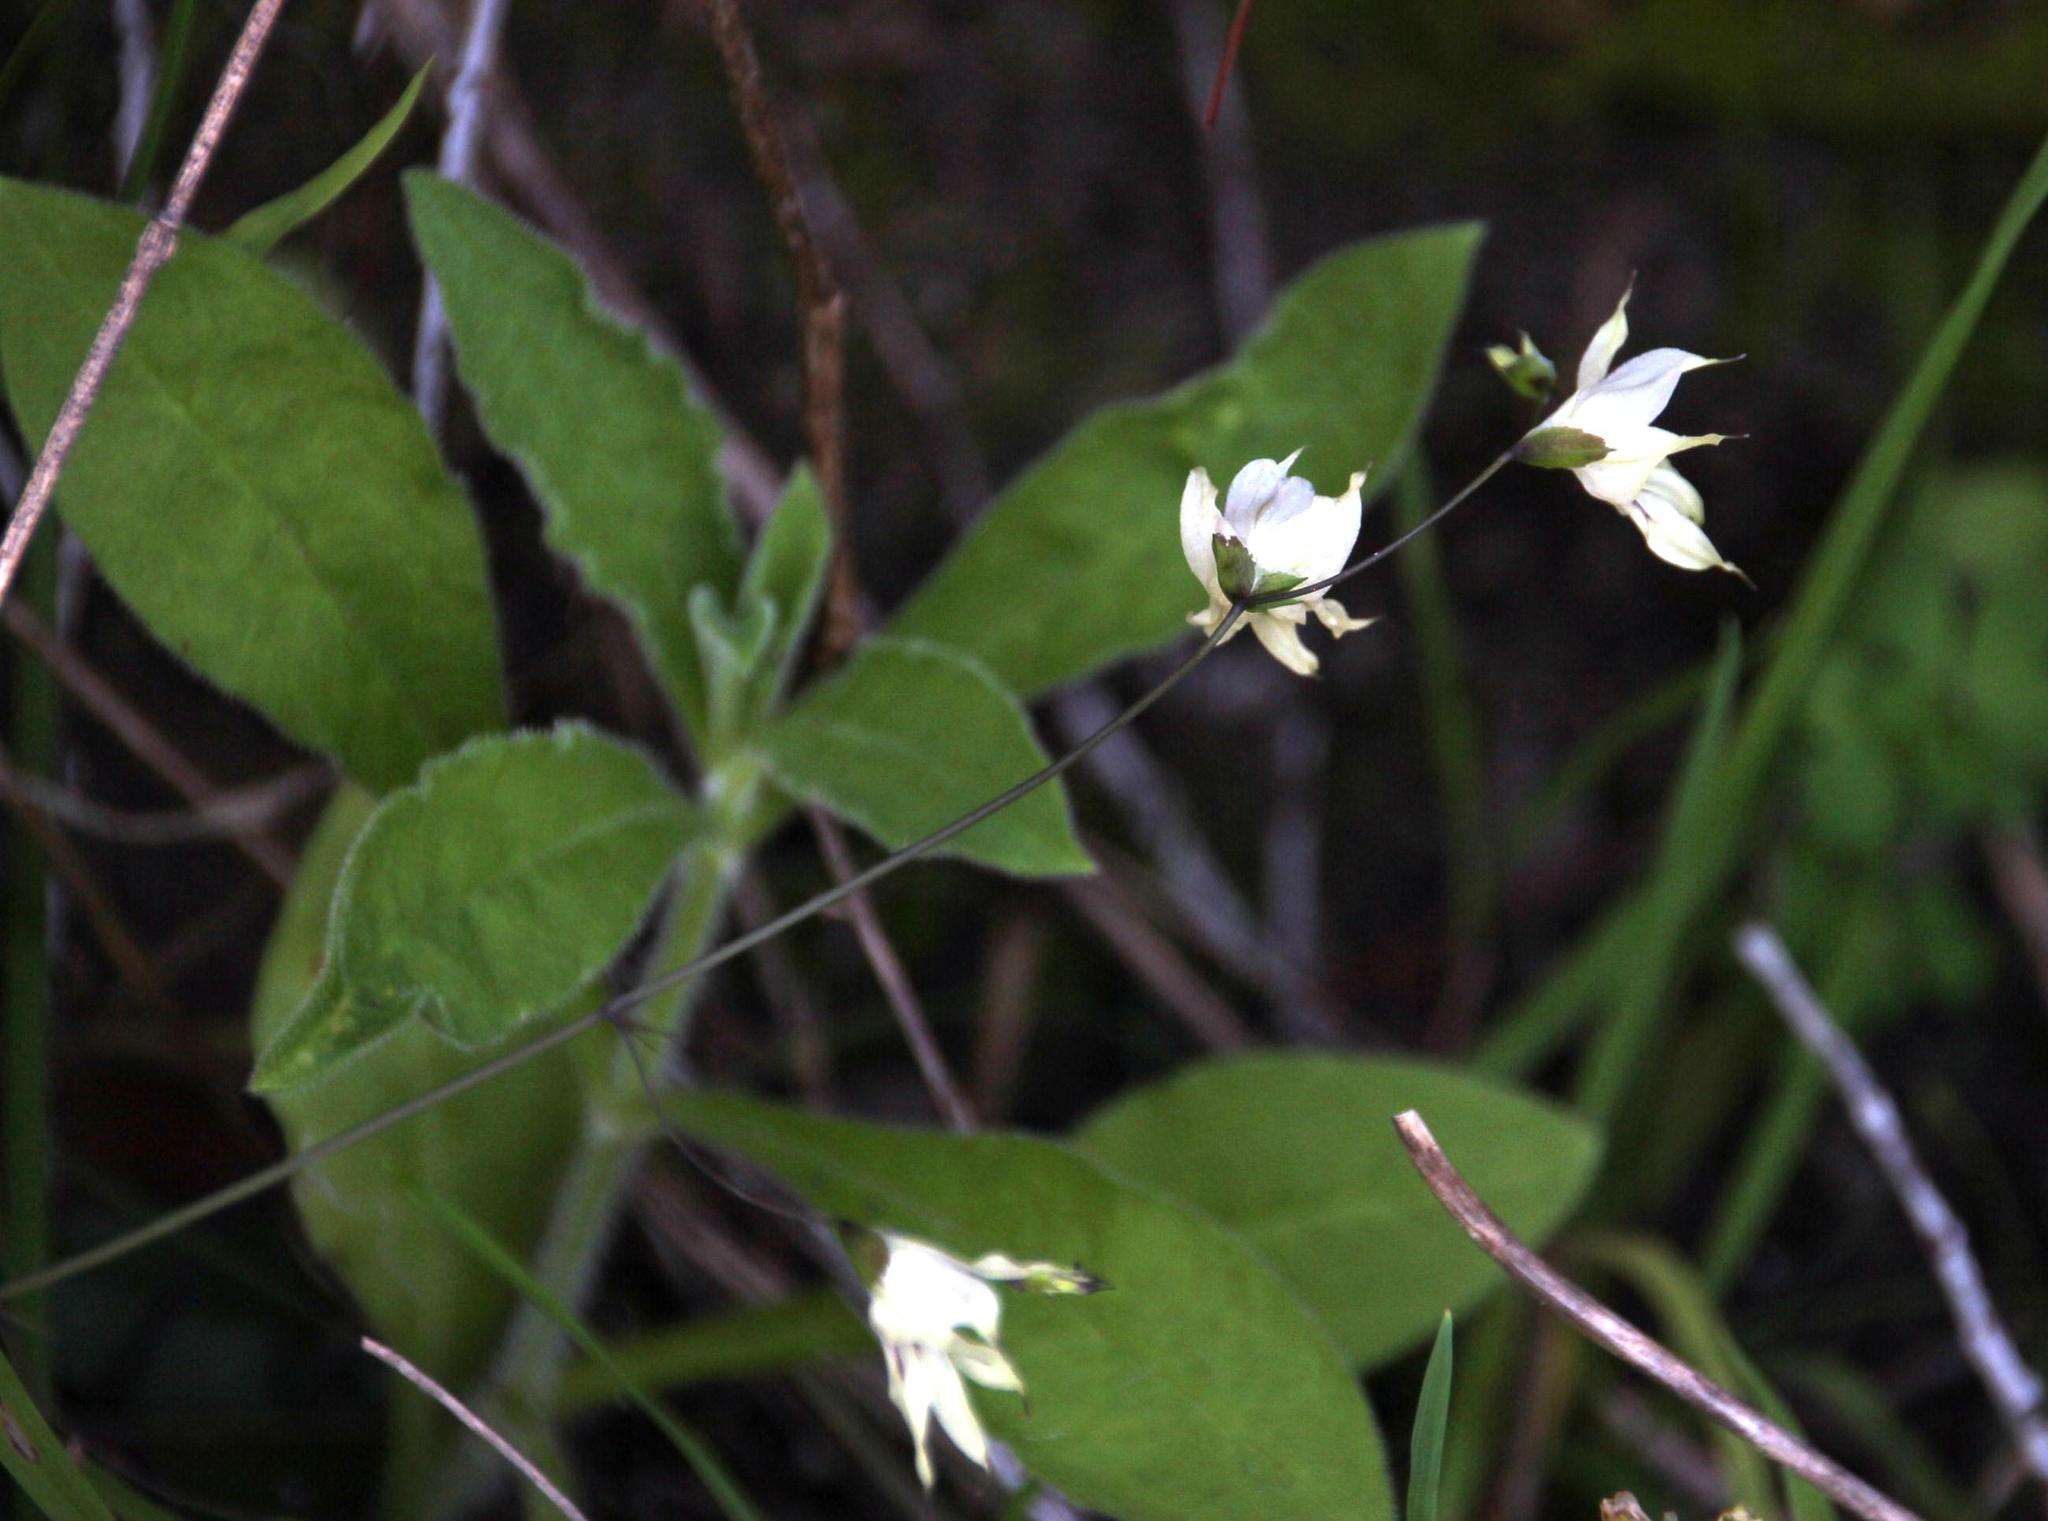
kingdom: Plantae
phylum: Tracheophyta
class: Liliopsida
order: Asparagales
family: Iridaceae
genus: Melasphaerula
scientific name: Melasphaerula graminea
